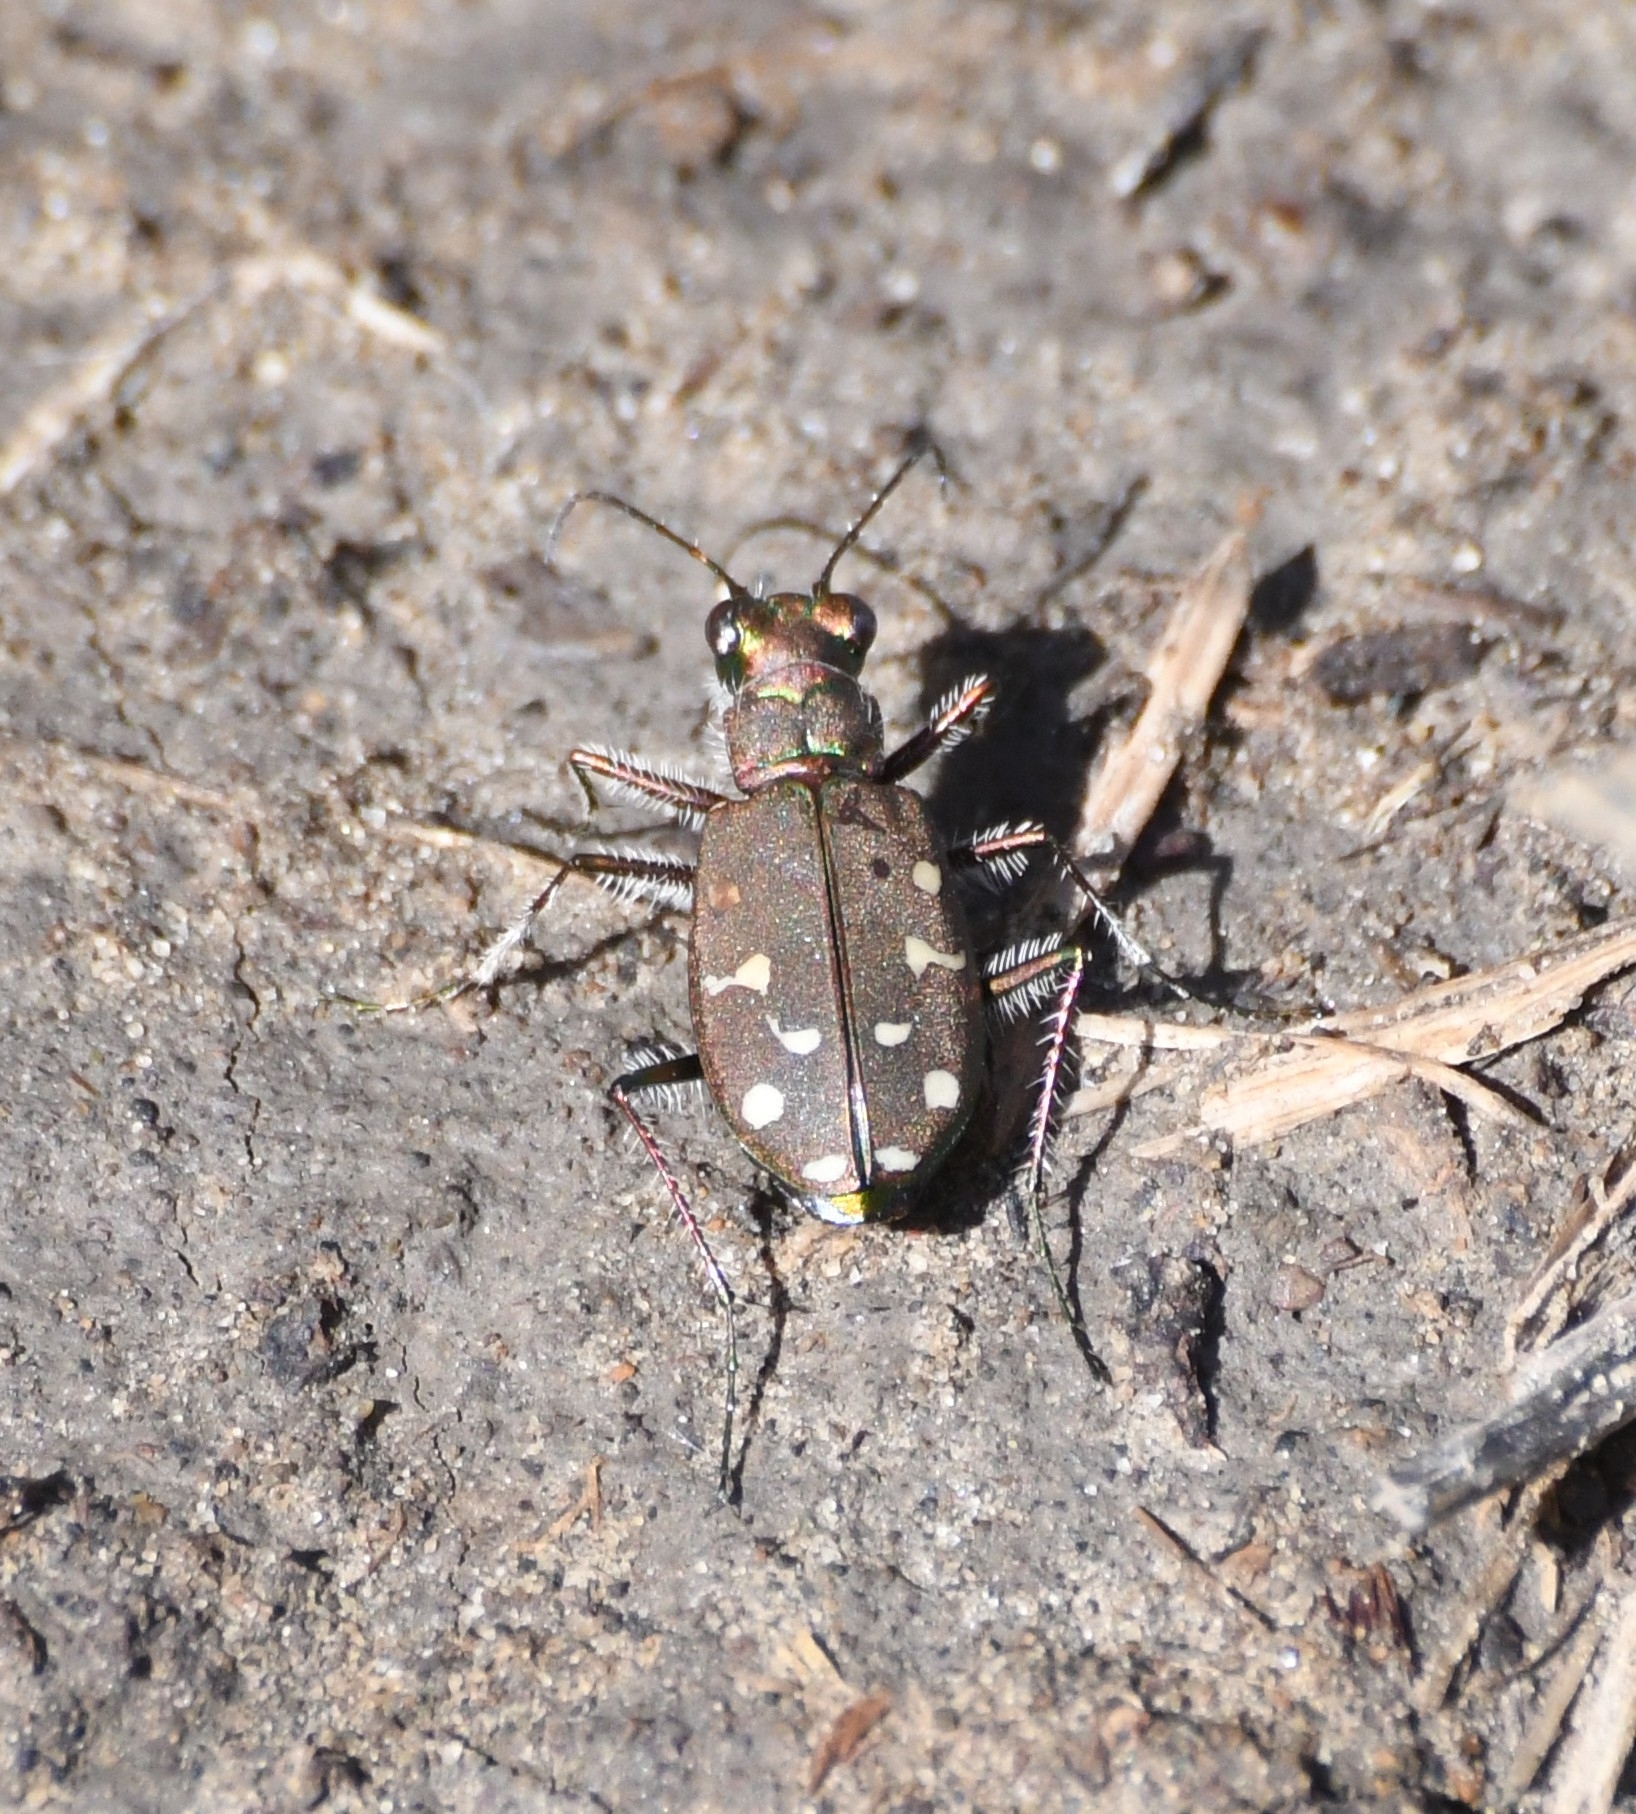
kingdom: Animalia
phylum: Arthropoda
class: Insecta
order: Coleoptera
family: Carabidae
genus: Cicindela
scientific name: Cicindela oregona
